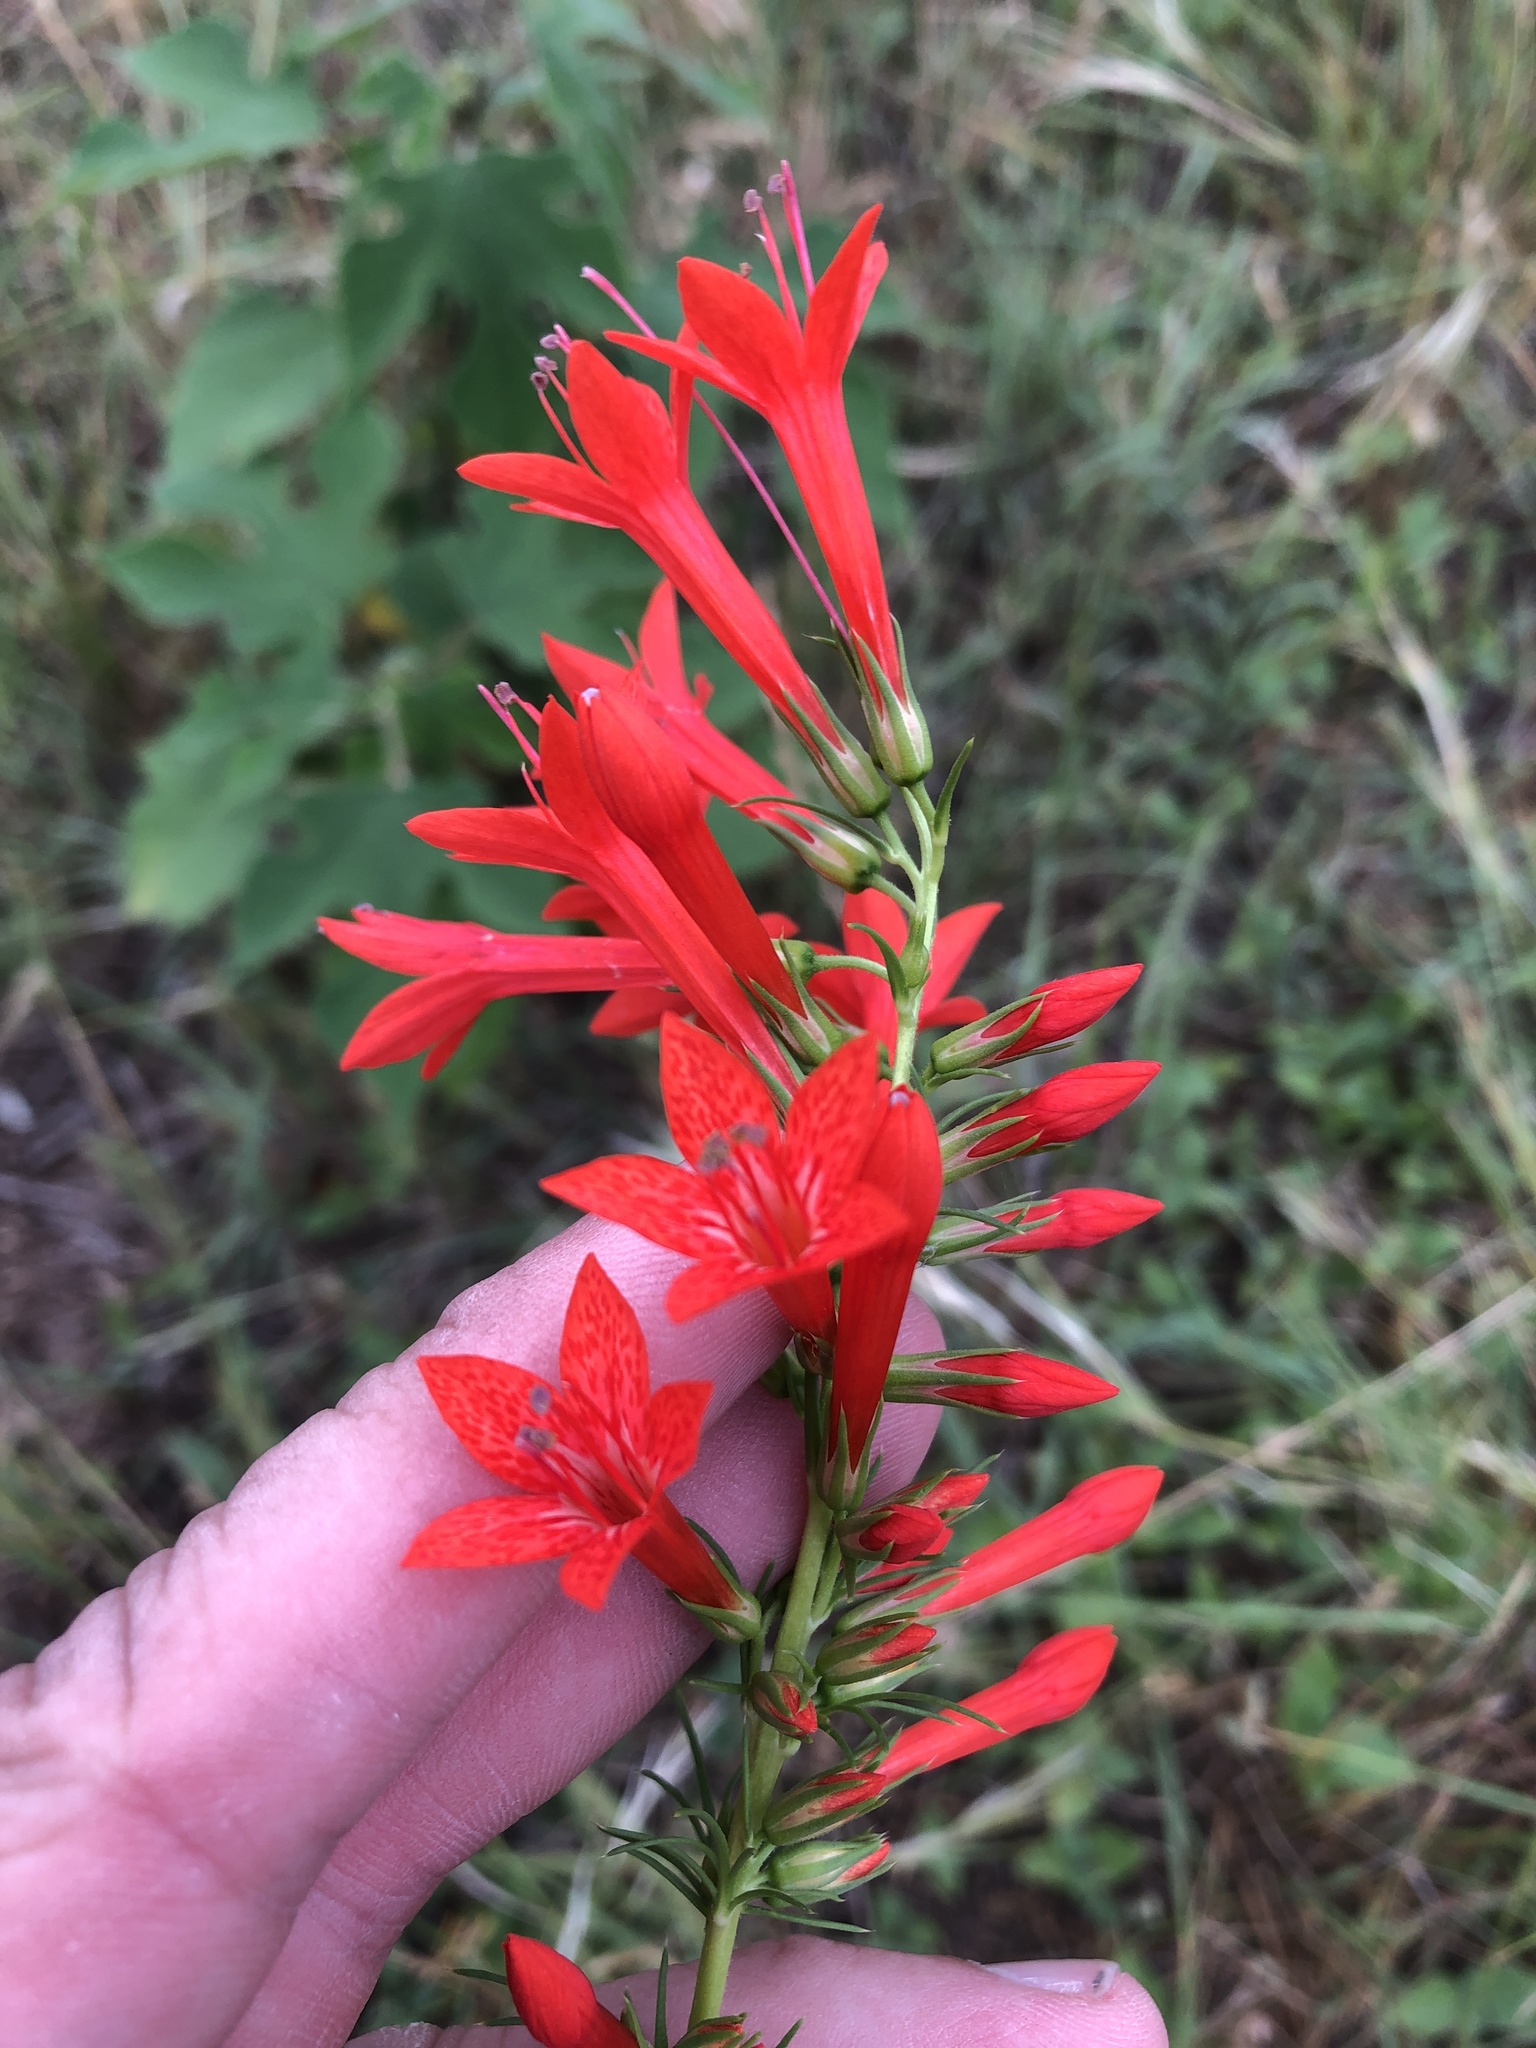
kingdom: Plantae
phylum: Tracheophyta
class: Magnoliopsida
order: Ericales
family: Polemoniaceae
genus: Ipomopsis
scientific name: Ipomopsis rubra
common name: Skyrocket
